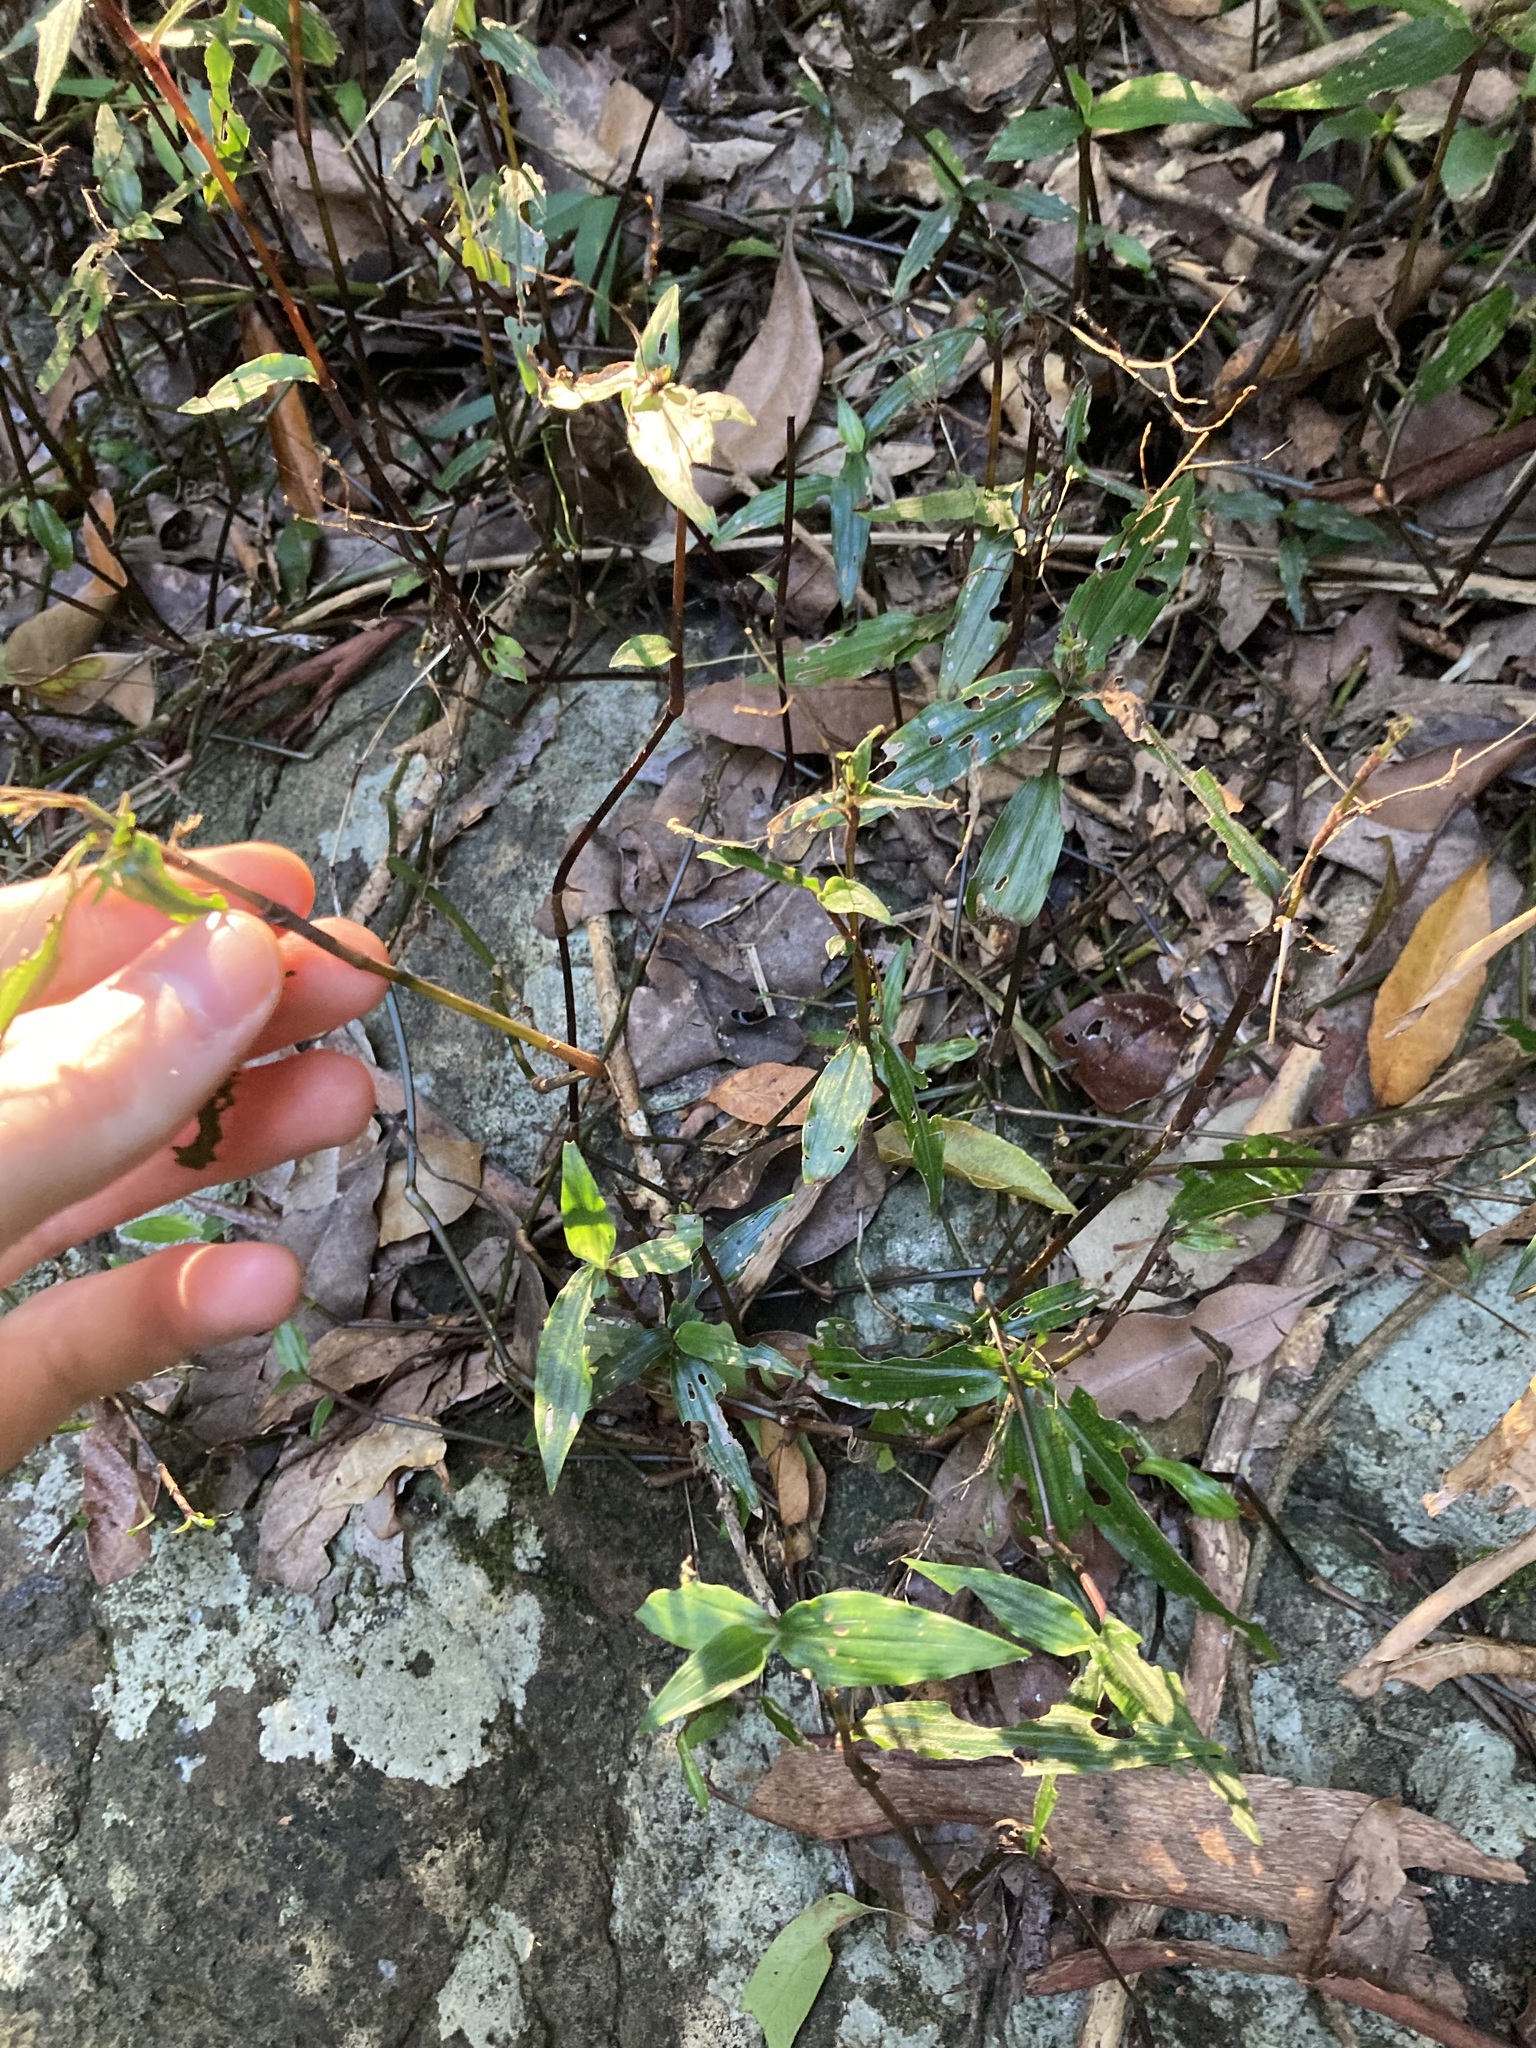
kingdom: Plantae
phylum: Tracheophyta
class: Liliopsida
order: Commelinales
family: Commelinaceae
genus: Aneilema
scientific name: Aneilema acuminatum
